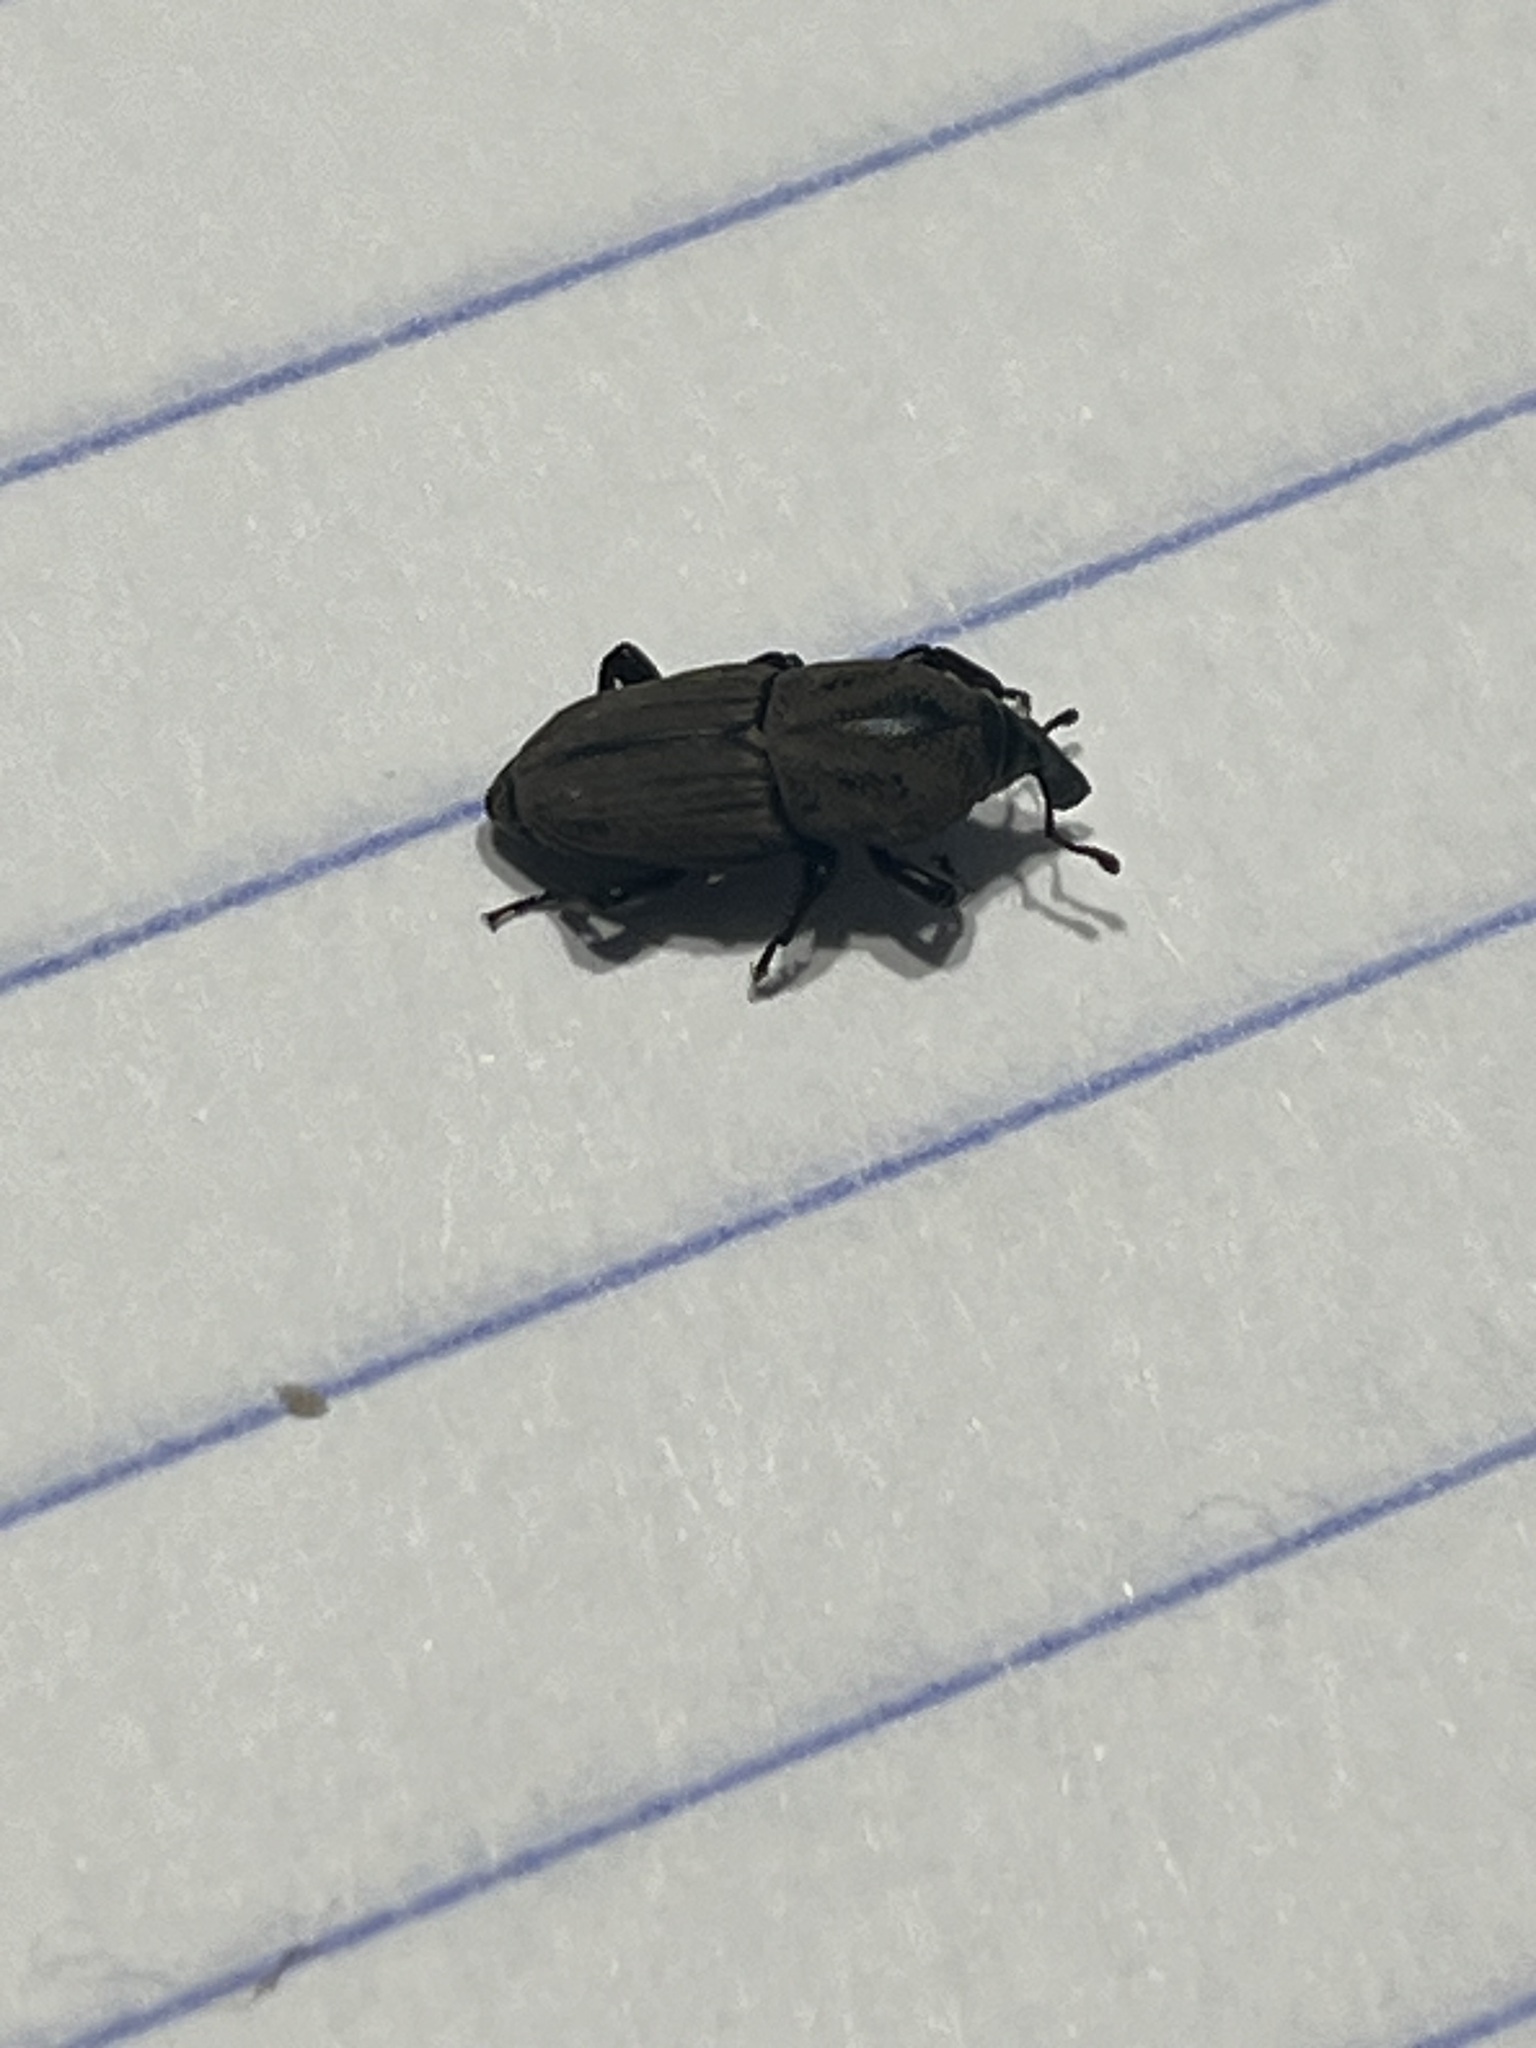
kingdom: Animalia
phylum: Arthropoda
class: Insecta
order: Coleoptera
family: Dryophthoridae
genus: Sphenophorus
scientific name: Sphenophorus compressirostris
